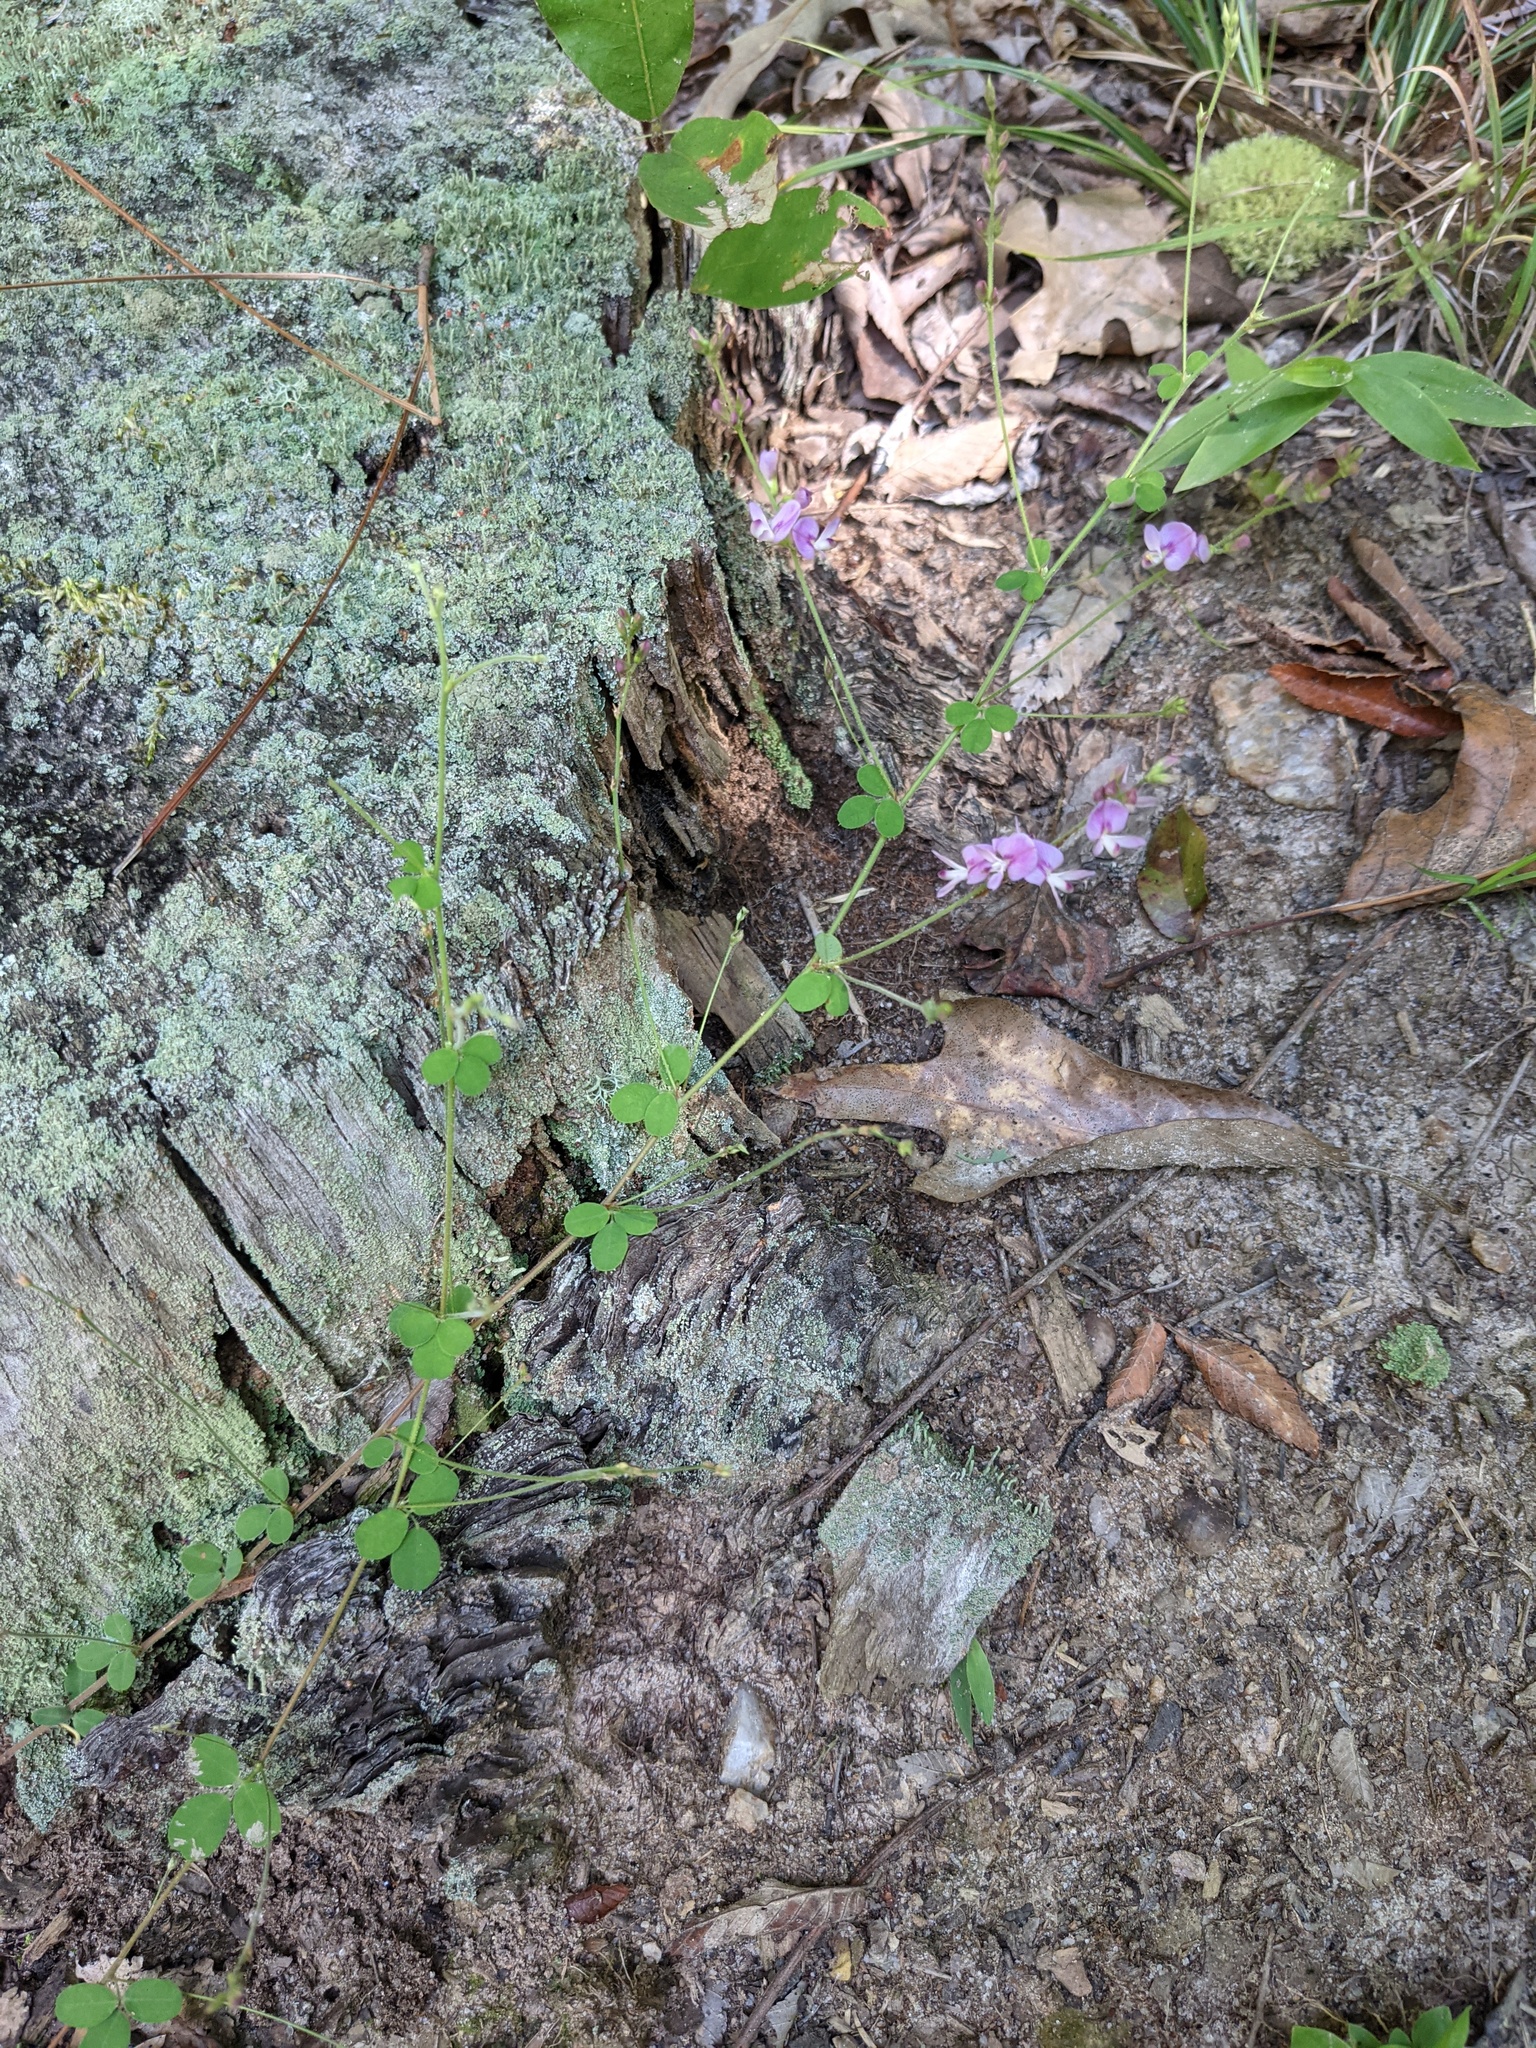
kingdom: Plantae
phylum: Tracheophyta
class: Magnoliopsida
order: Fabales
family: Fabaceae
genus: Lespedeza
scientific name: Lespedeza procumbens
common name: Downy trailing bush-clover
